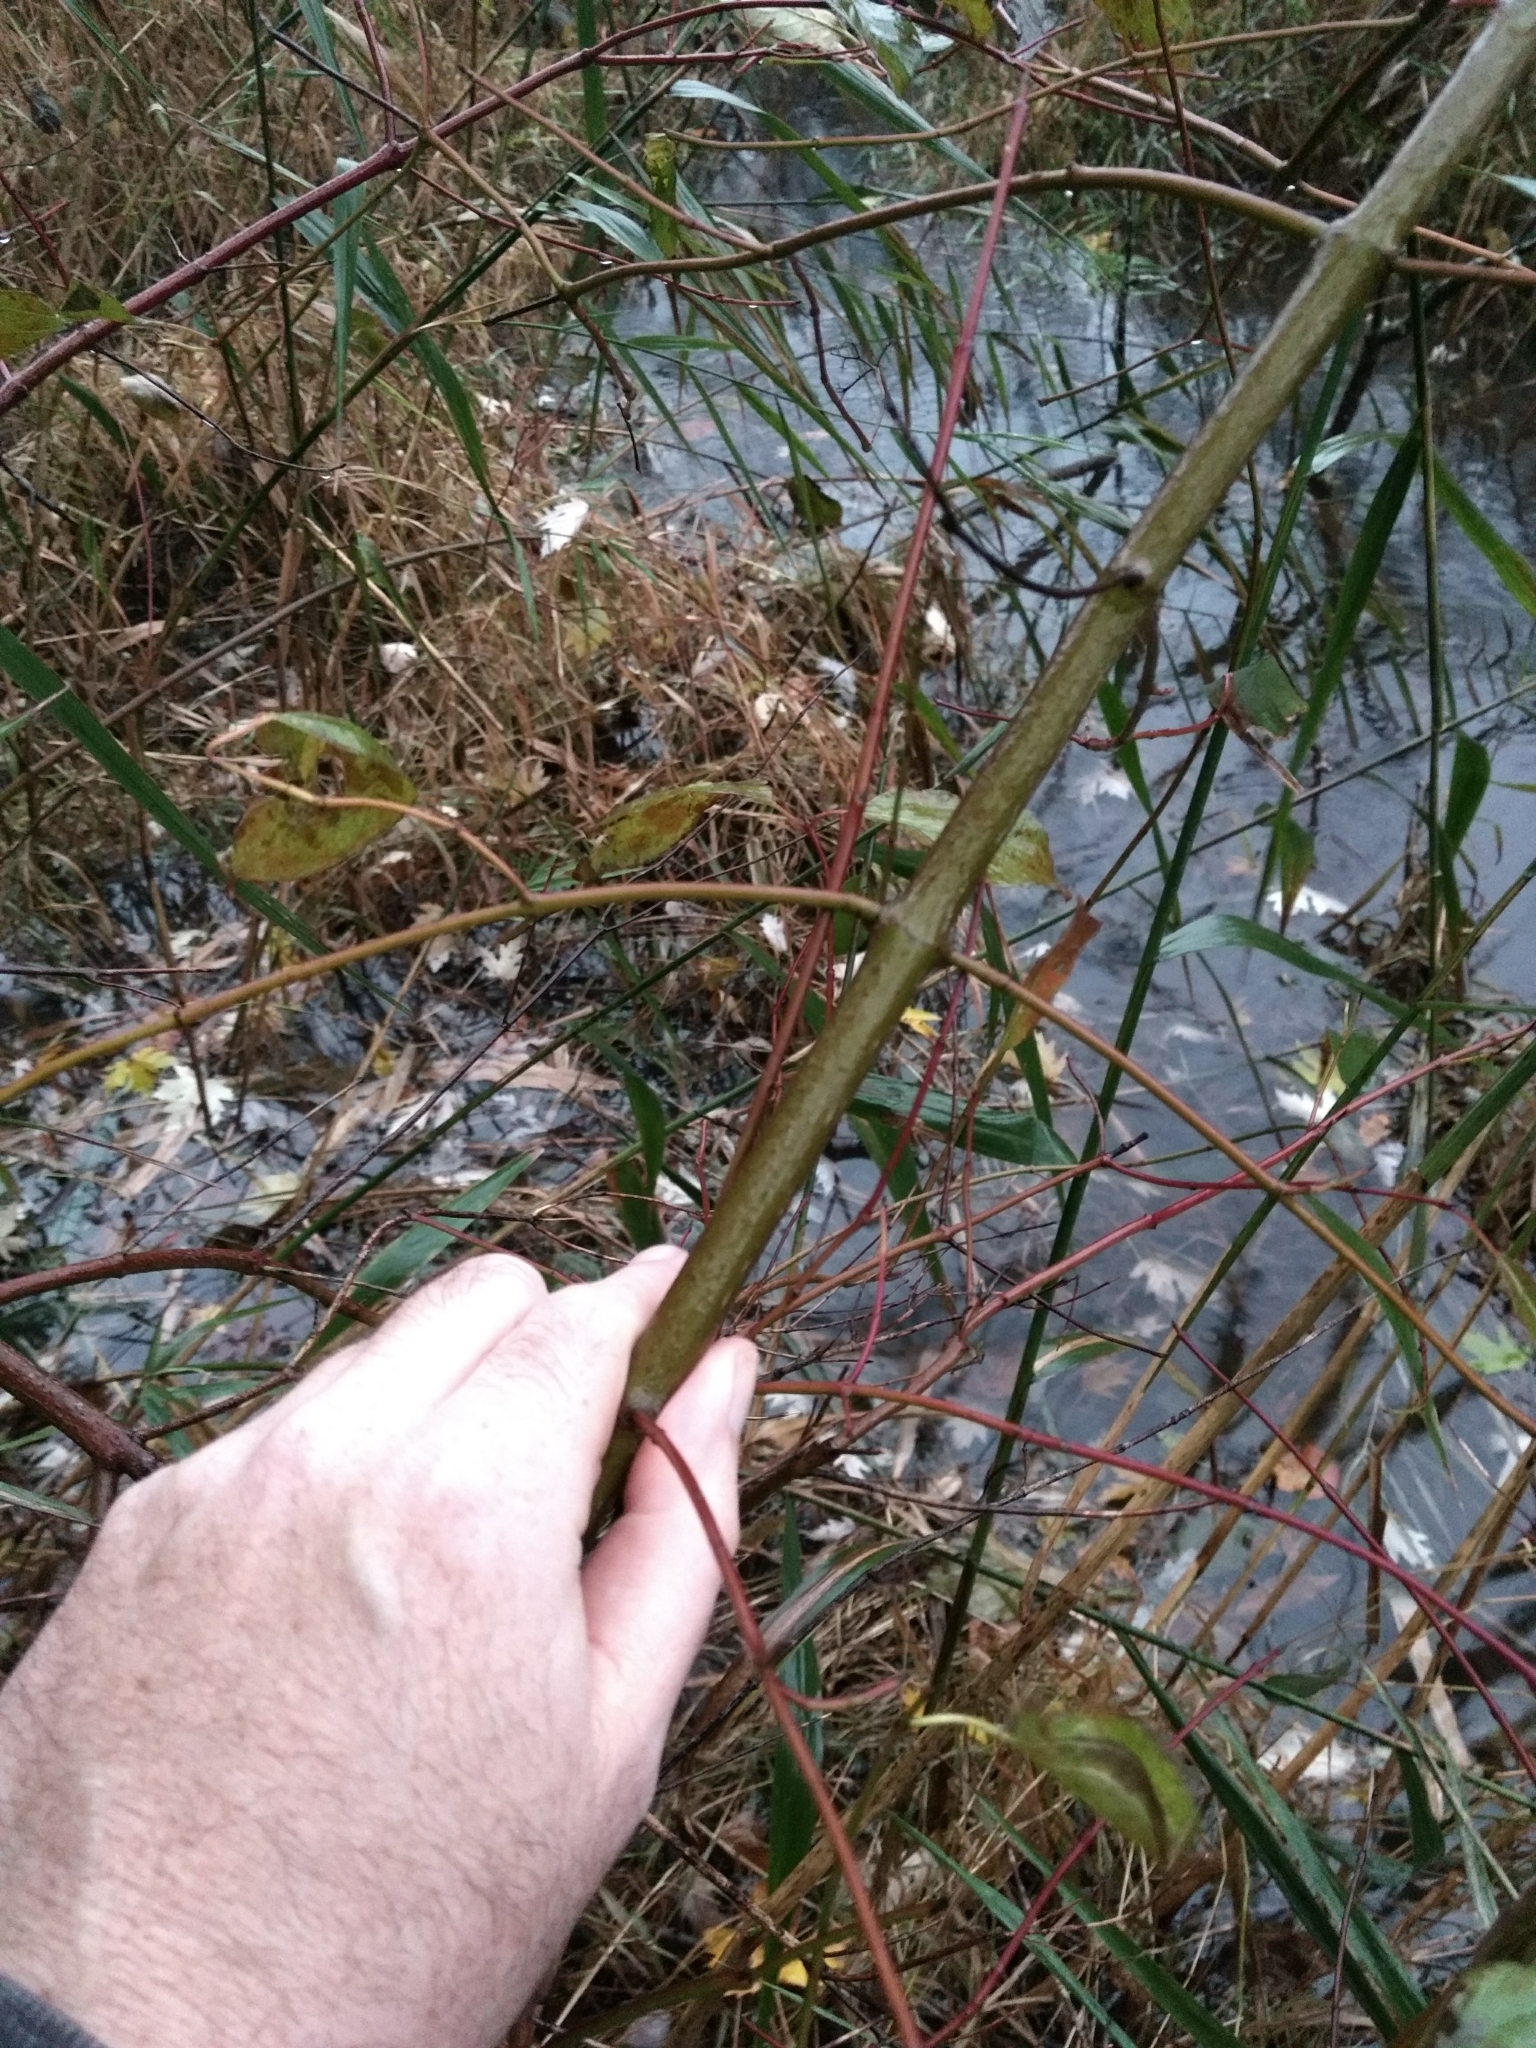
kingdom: Plantae
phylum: Tracheophyta
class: Magnoliopsida
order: Cornales
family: Cornaceae
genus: Cornus
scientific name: Cornus rugosa
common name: Round-leaf dogwood
